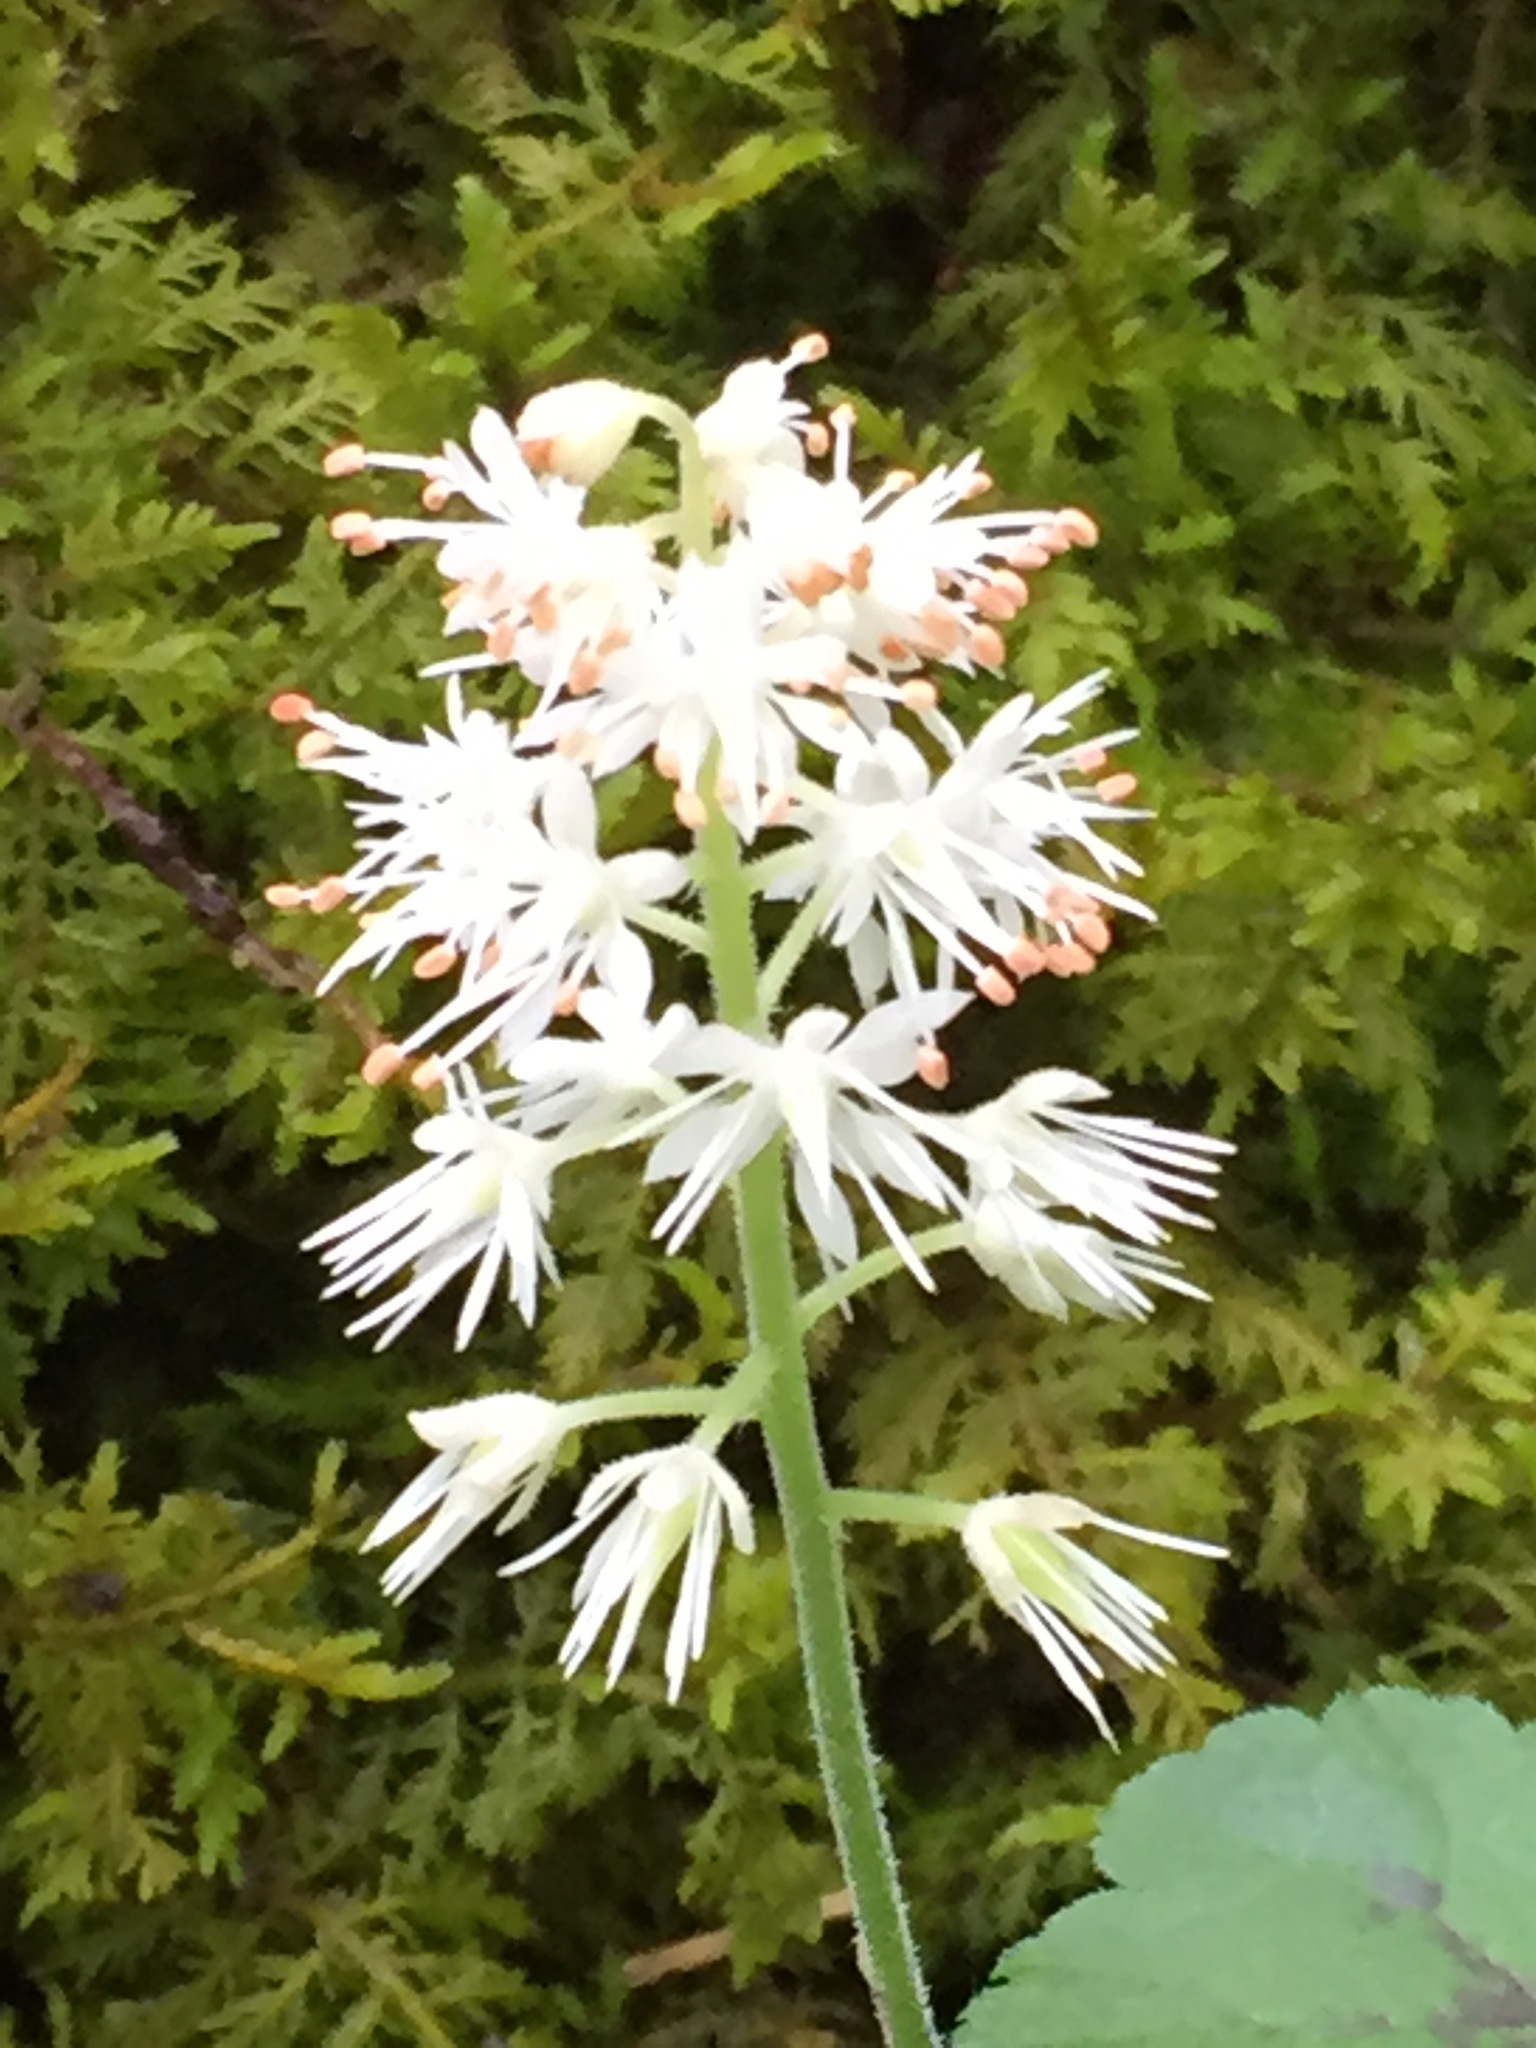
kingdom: Plantae
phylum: Tracheophyta
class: Magnoliopsida
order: Saxifragales
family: Saxifragaceae
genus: Tiarella
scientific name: Tiarella stolonifera
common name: Stoloniferous foamflower
